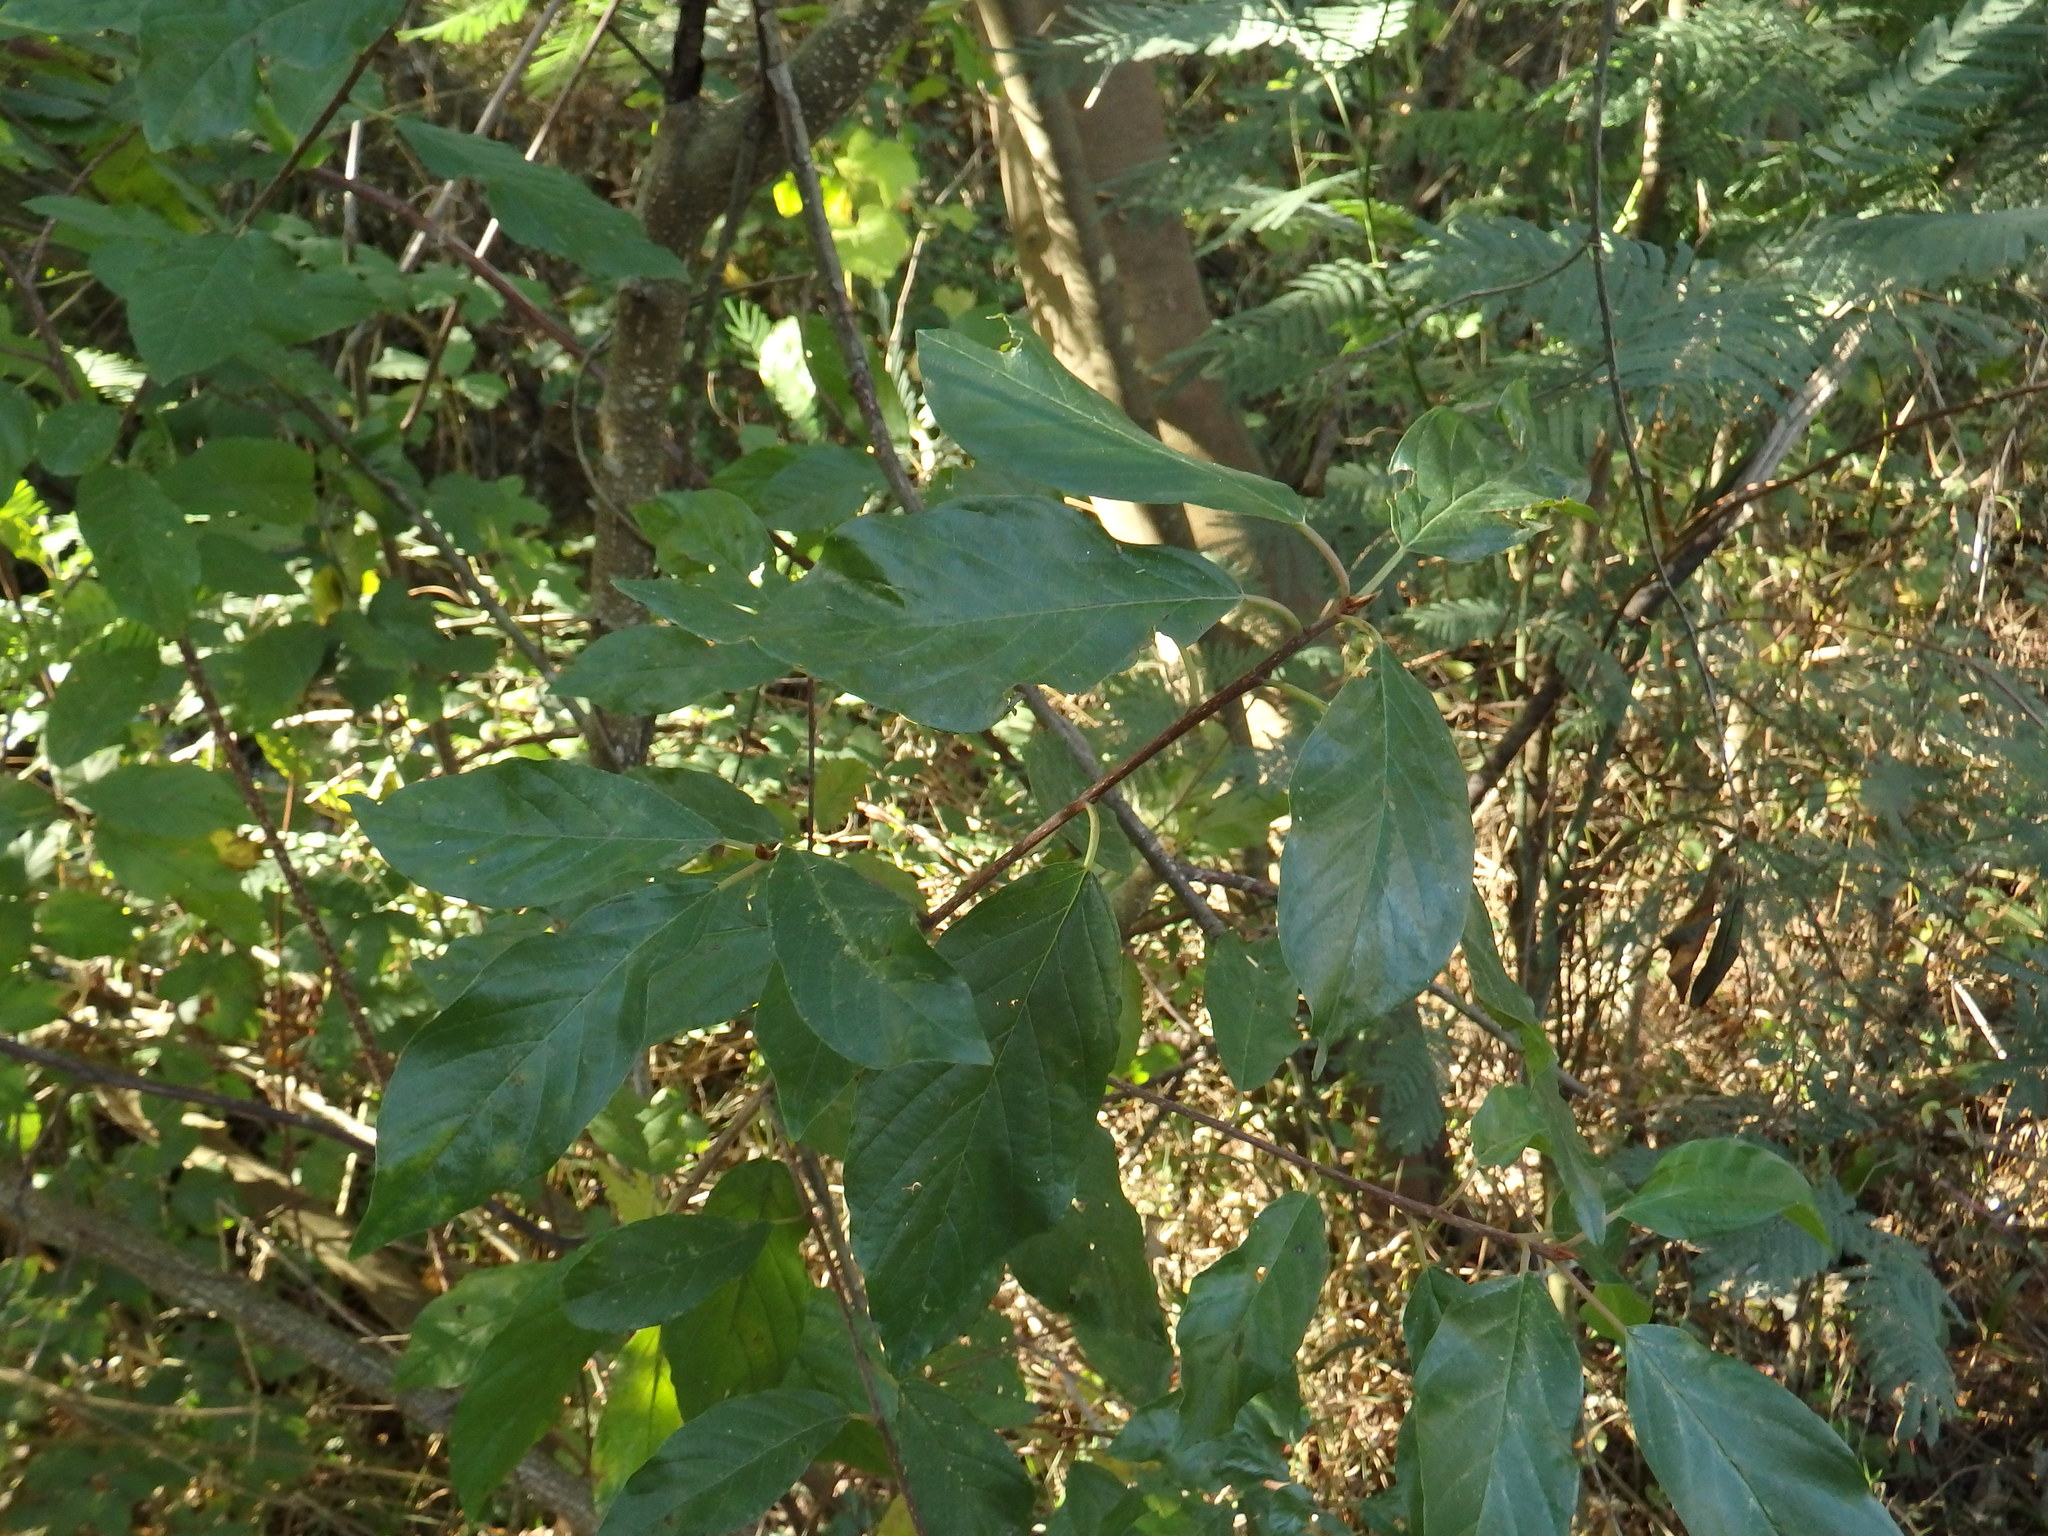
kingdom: Plantae
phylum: Tracheophyta
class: Magnoliopsida
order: Rosales
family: Rhamnaceae
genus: Frangula
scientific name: Frangula alnus
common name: Alder buckthorn
